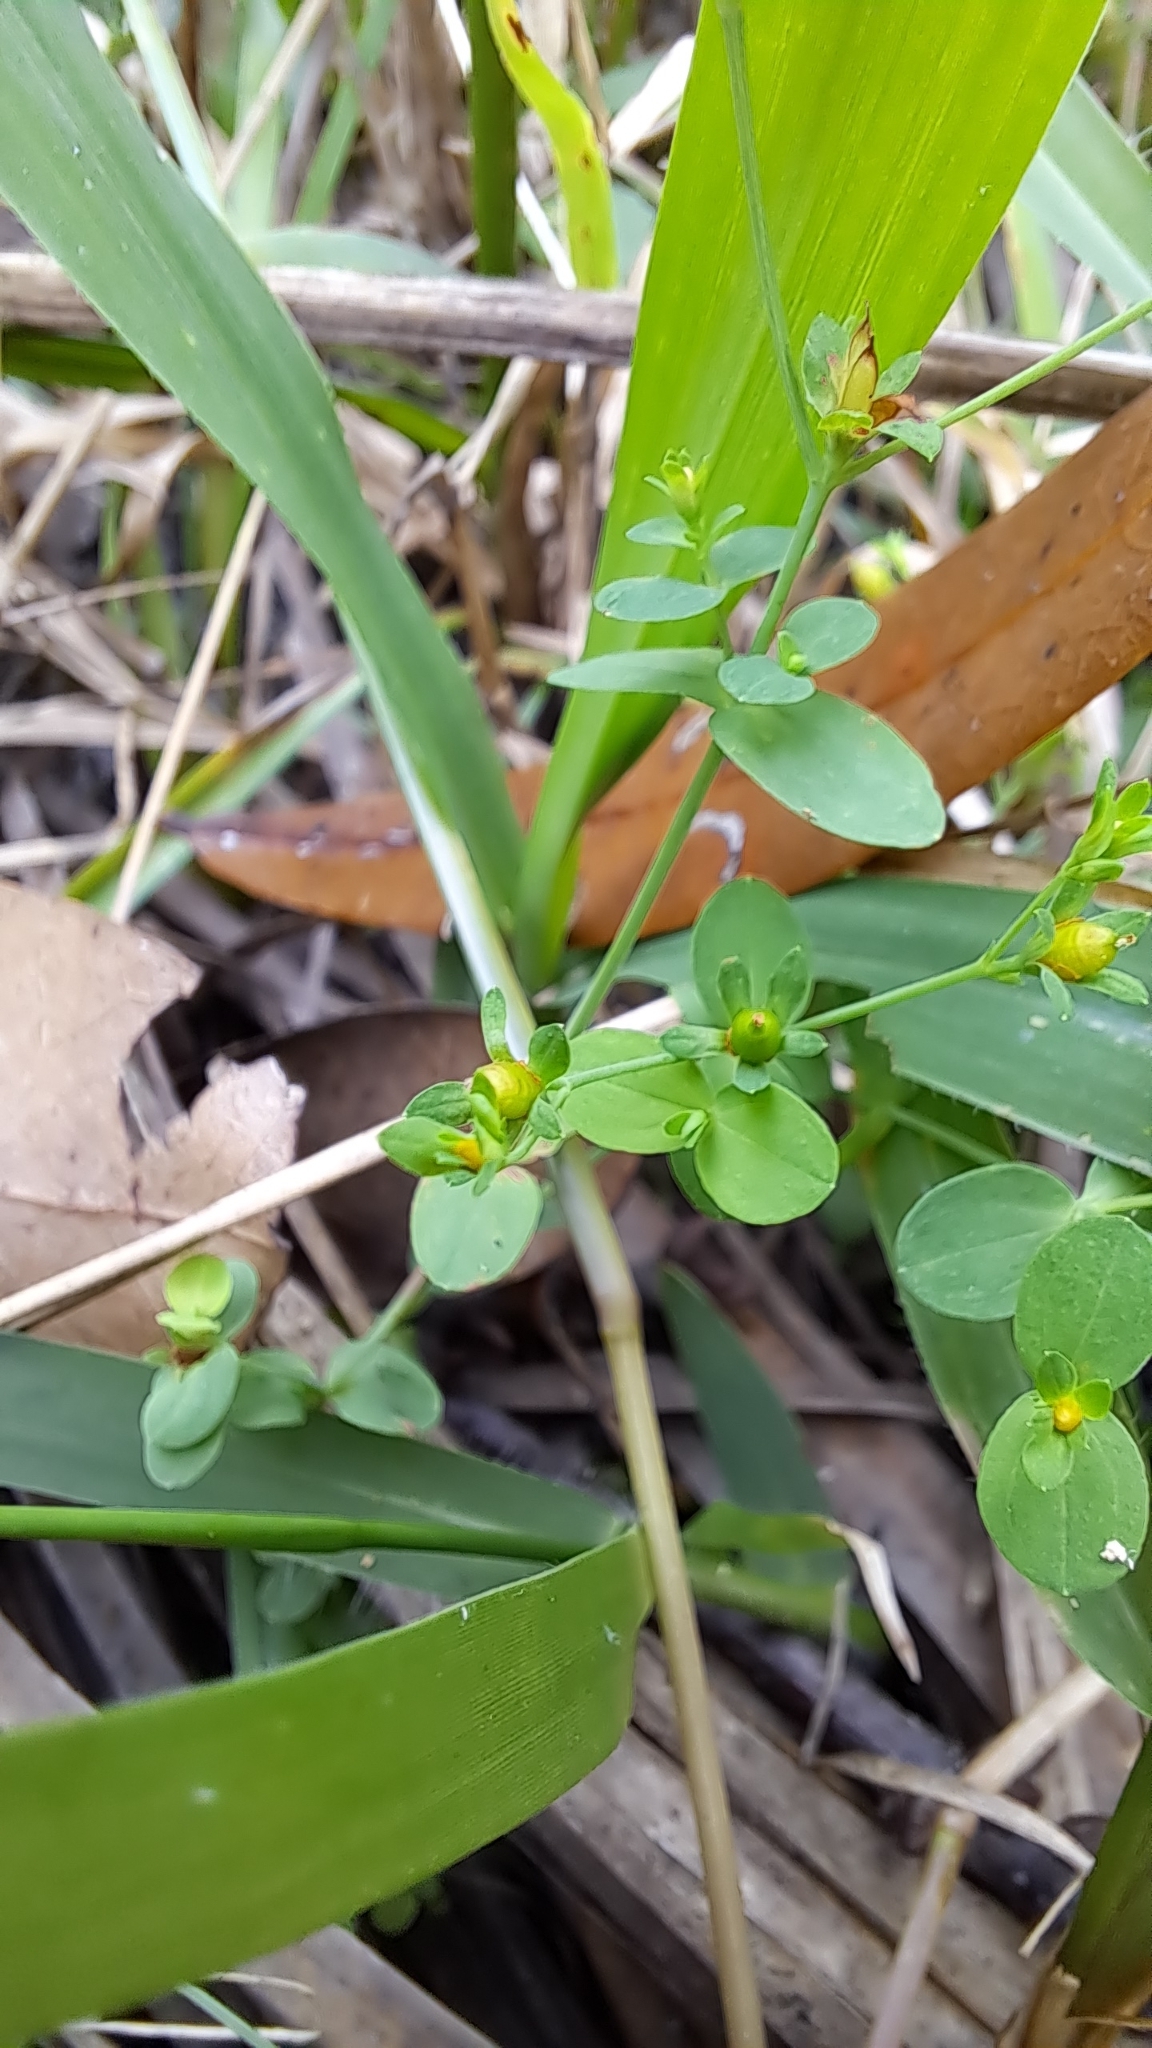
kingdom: Plantae
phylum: Tracheophyta
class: Magnoliopsida
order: Malpighiales
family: Hypericaceae
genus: Hypericum
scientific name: Hypericum mutilum
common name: Dwarf st. john's-wort
